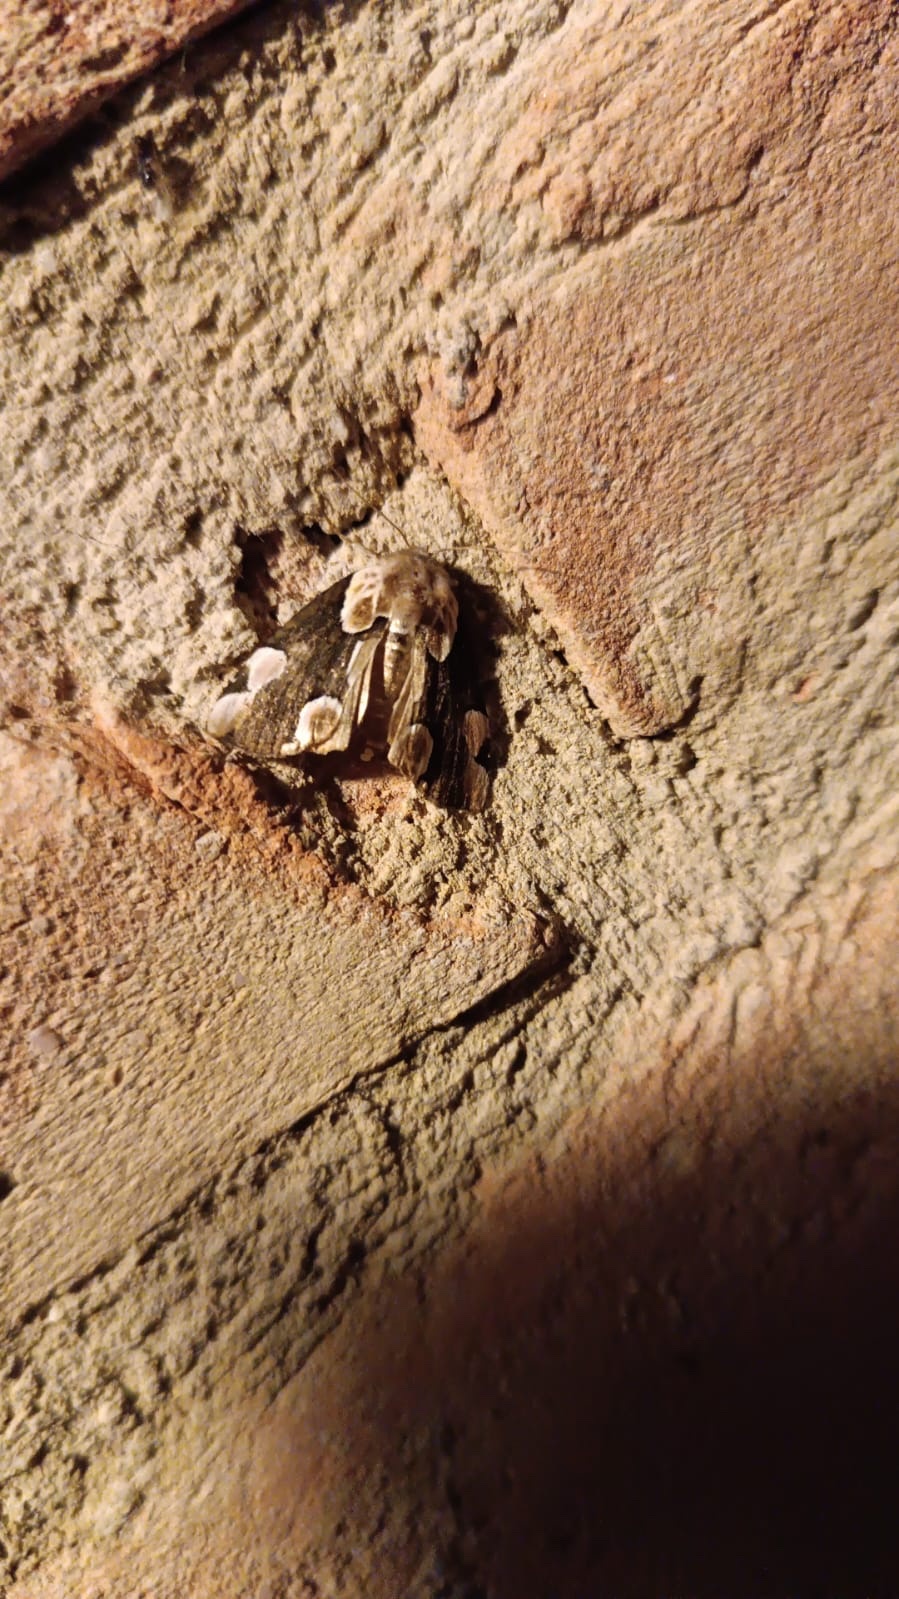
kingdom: Animalia
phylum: Arthropoda
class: Insecta
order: Lepidoptera
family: Drepanidae
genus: Thyatira
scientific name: Thyatira batis
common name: Peach blossom
